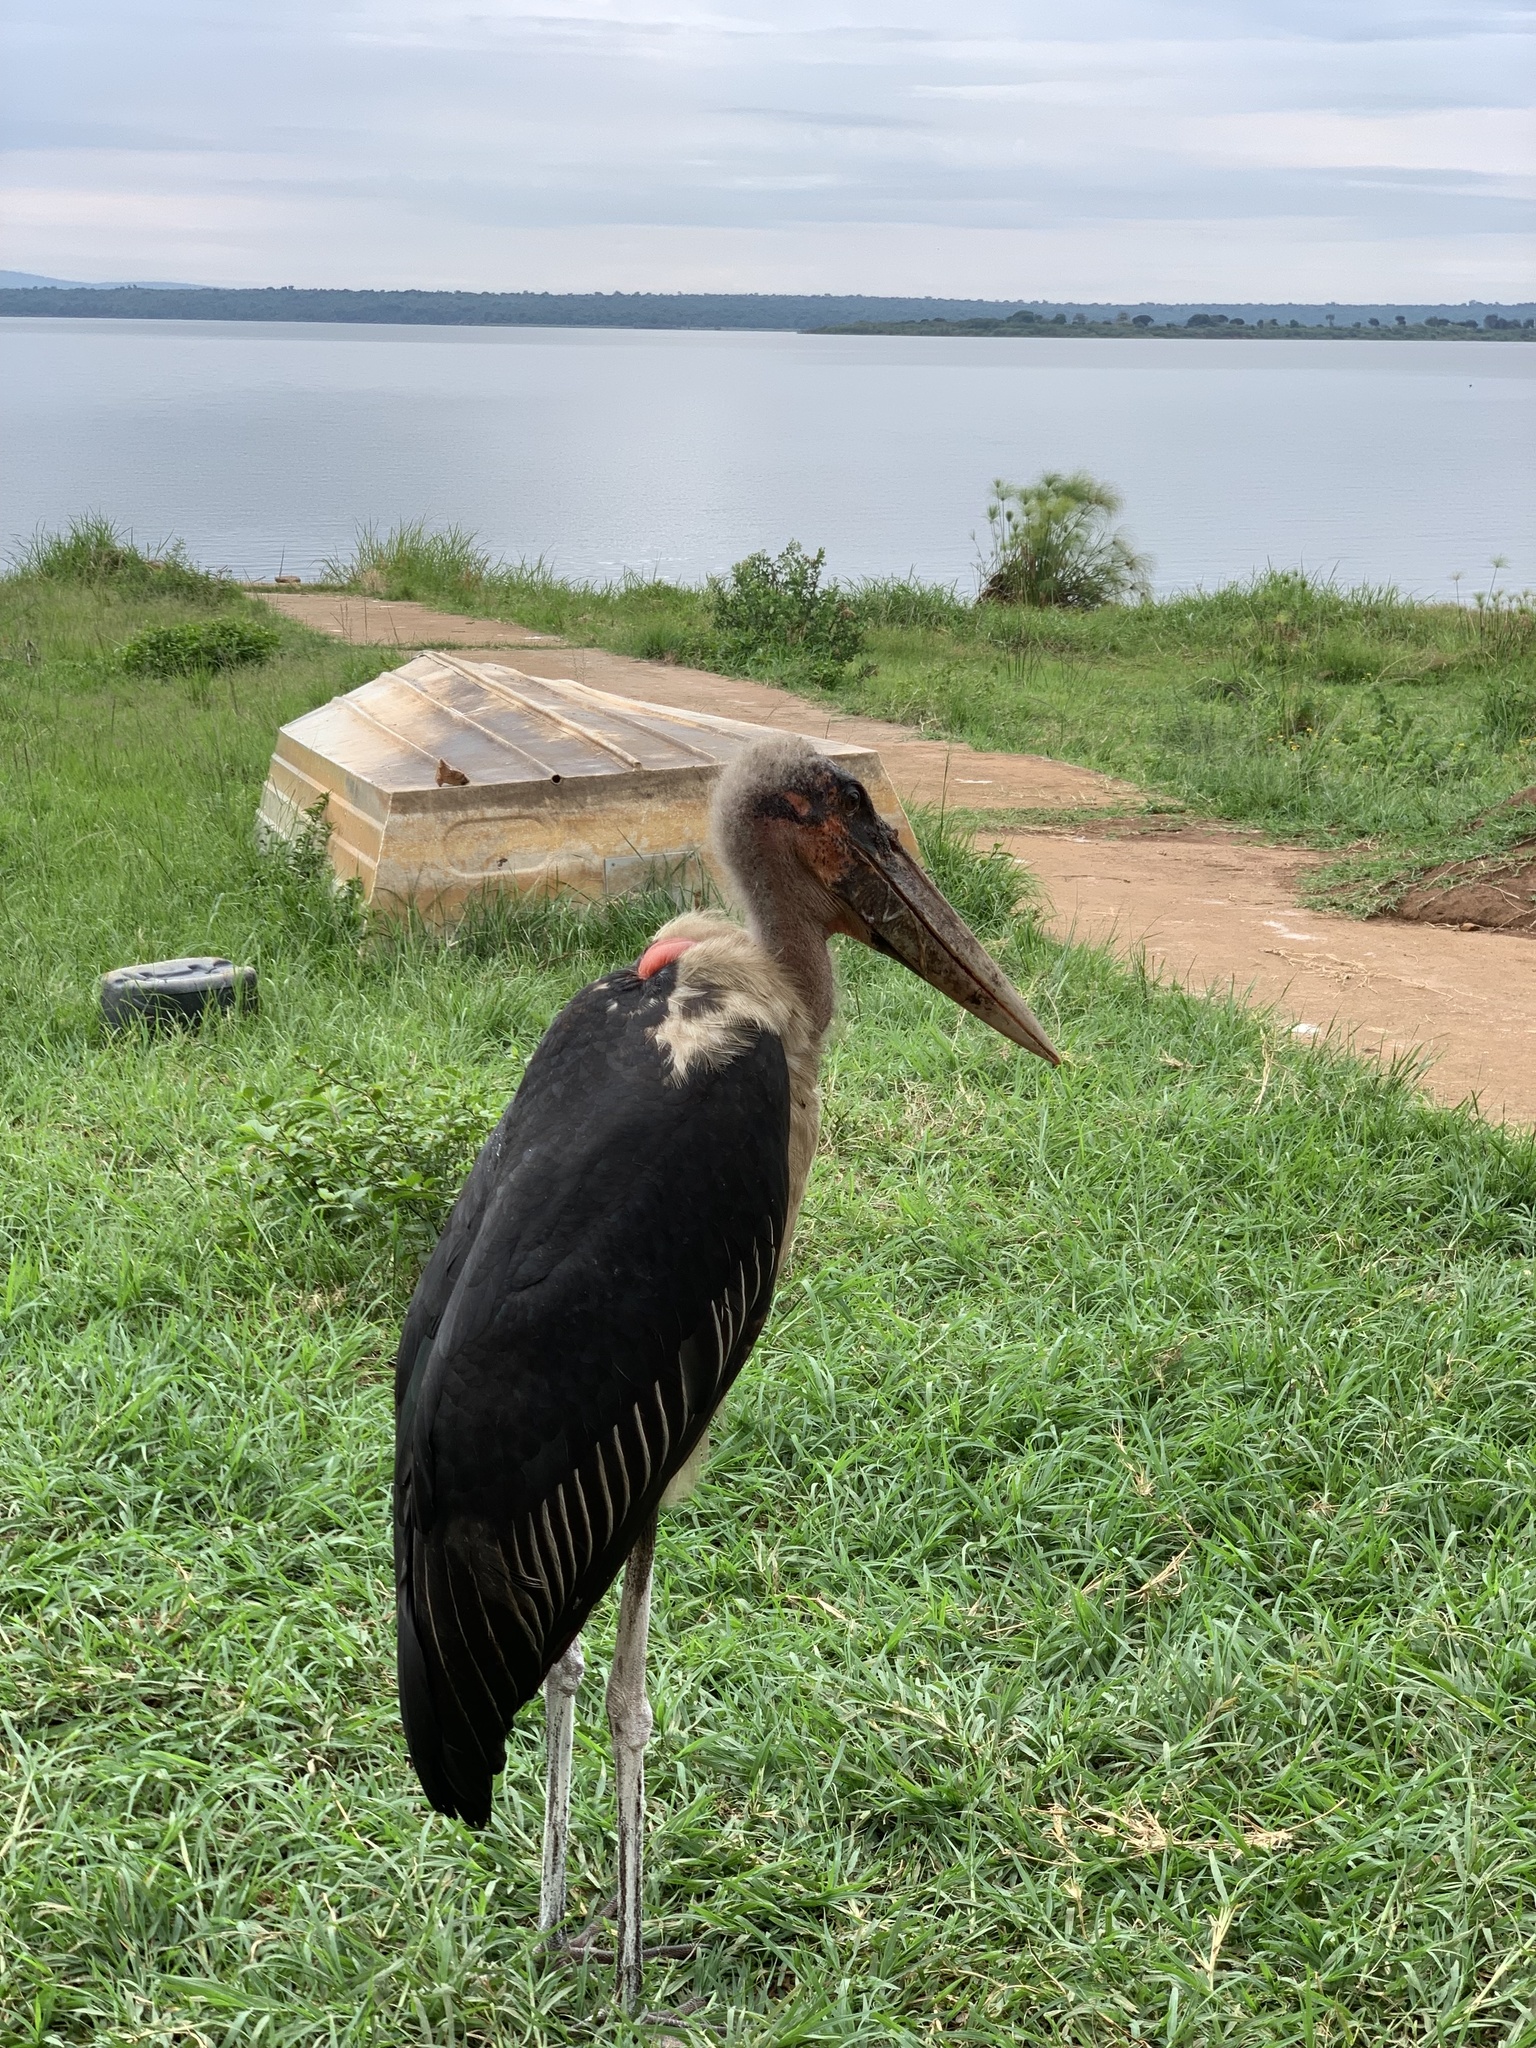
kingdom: Animalia
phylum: Chordata
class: Aves
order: Ciconiiformes
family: Ciconiidae
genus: Leptoptilos
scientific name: Leptoptilos crumenifer
